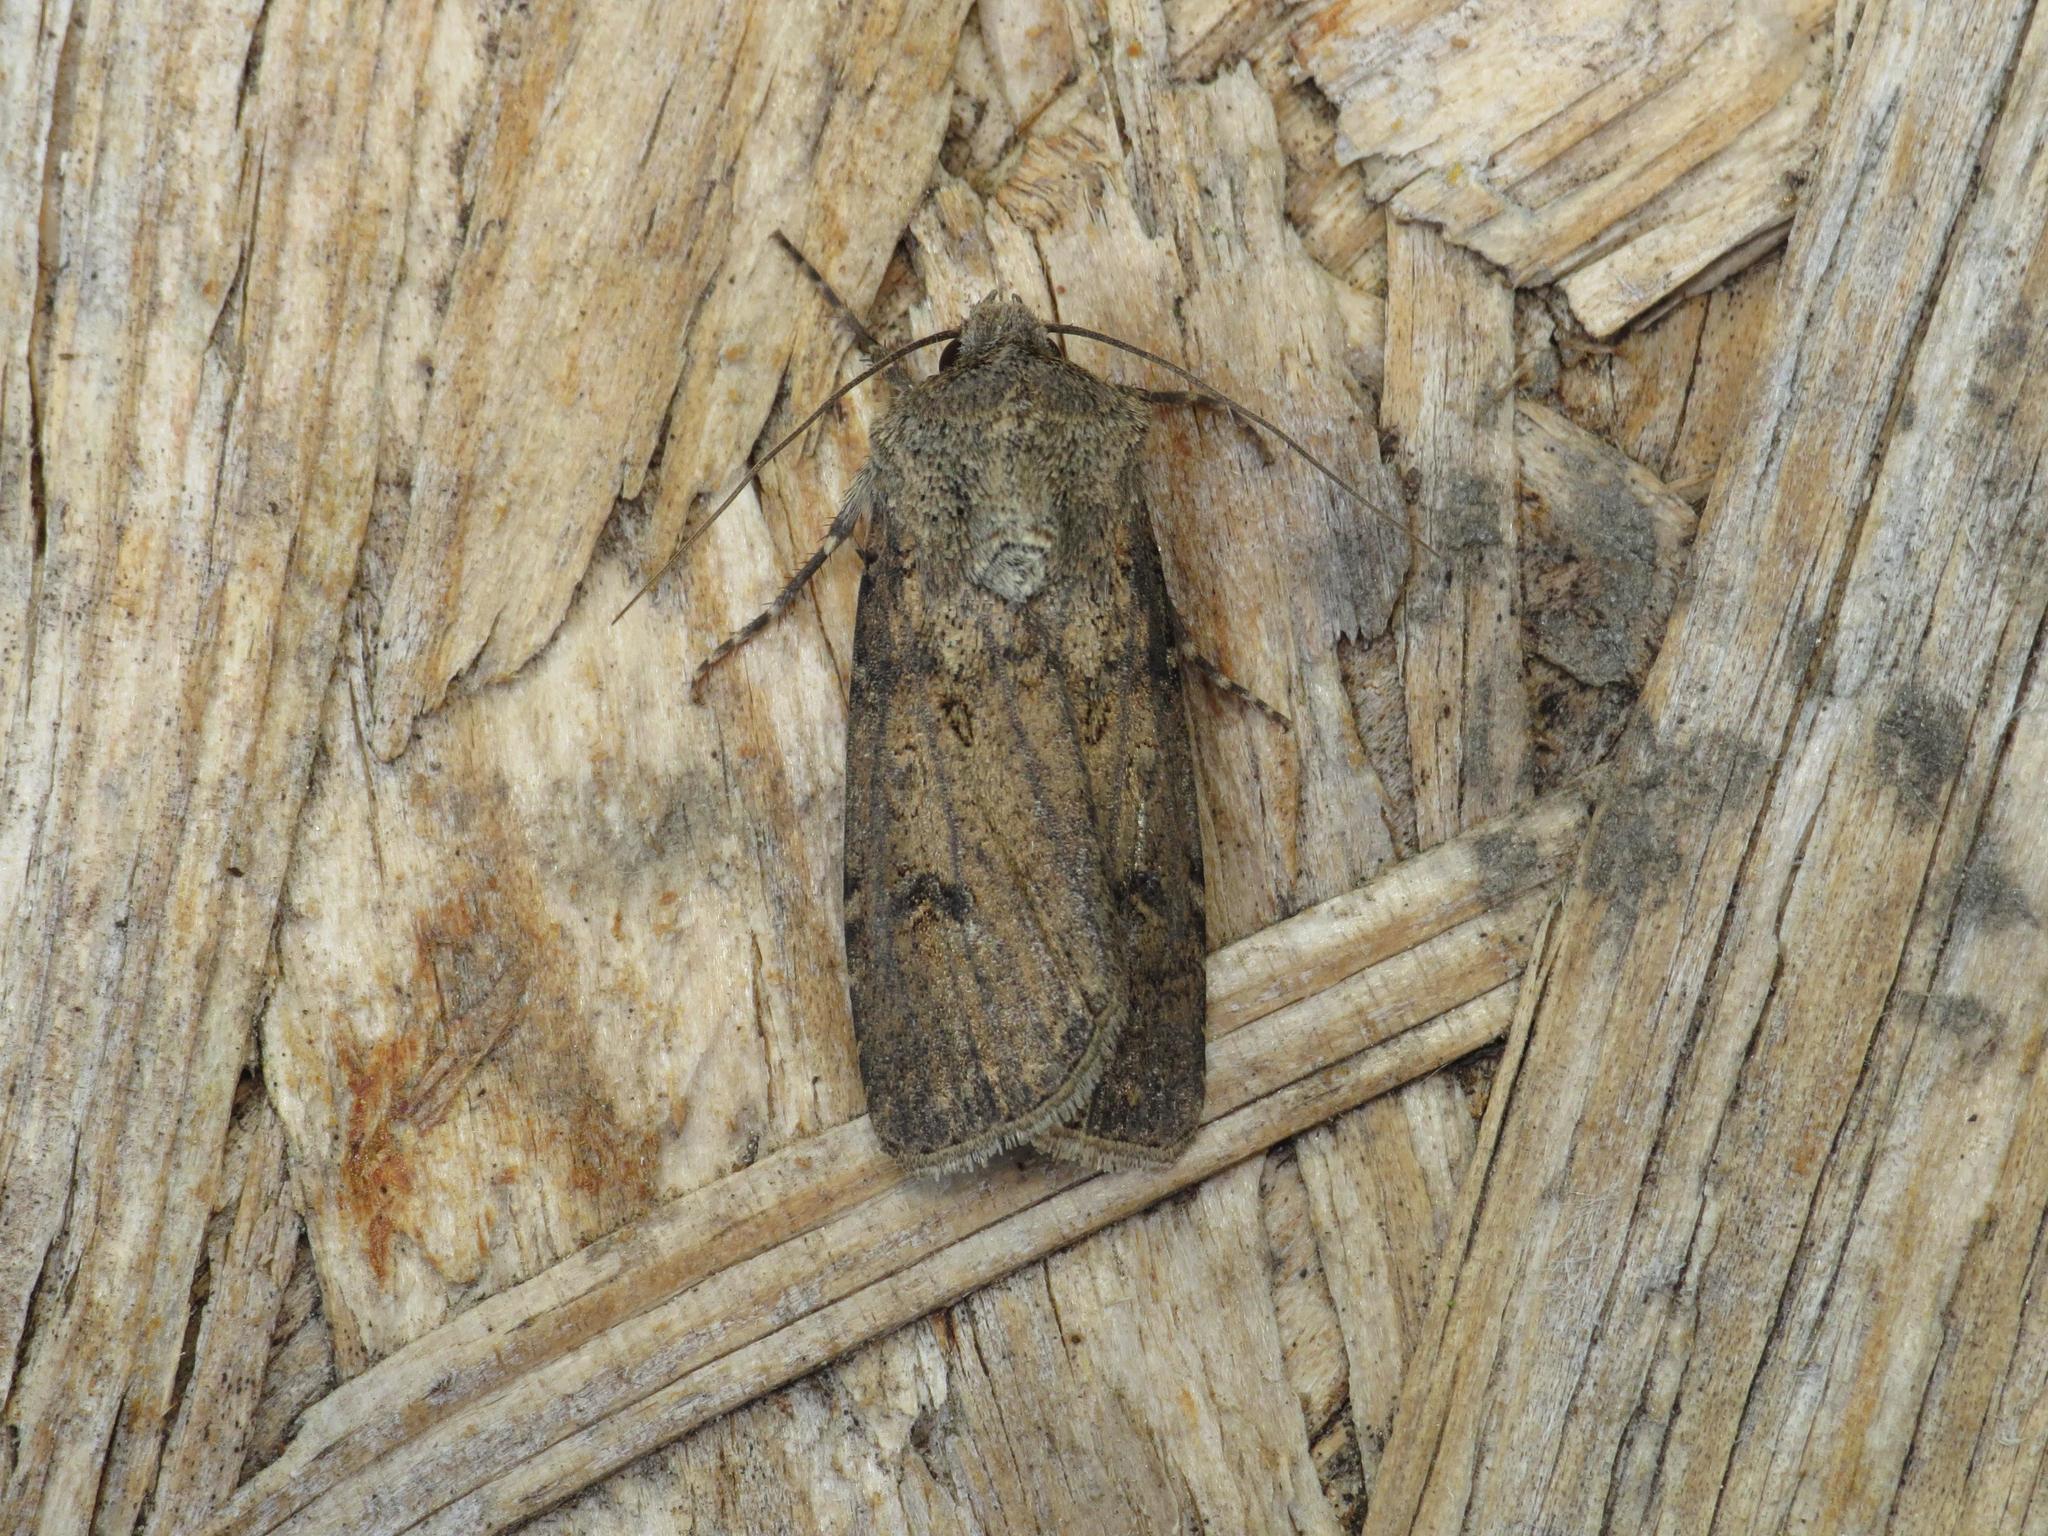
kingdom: Animalia
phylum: Arthropoda
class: Insecta
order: Lepidoptera
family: Noctuidae
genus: Agrotis
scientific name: Agrotis segetum
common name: Turnip moth
